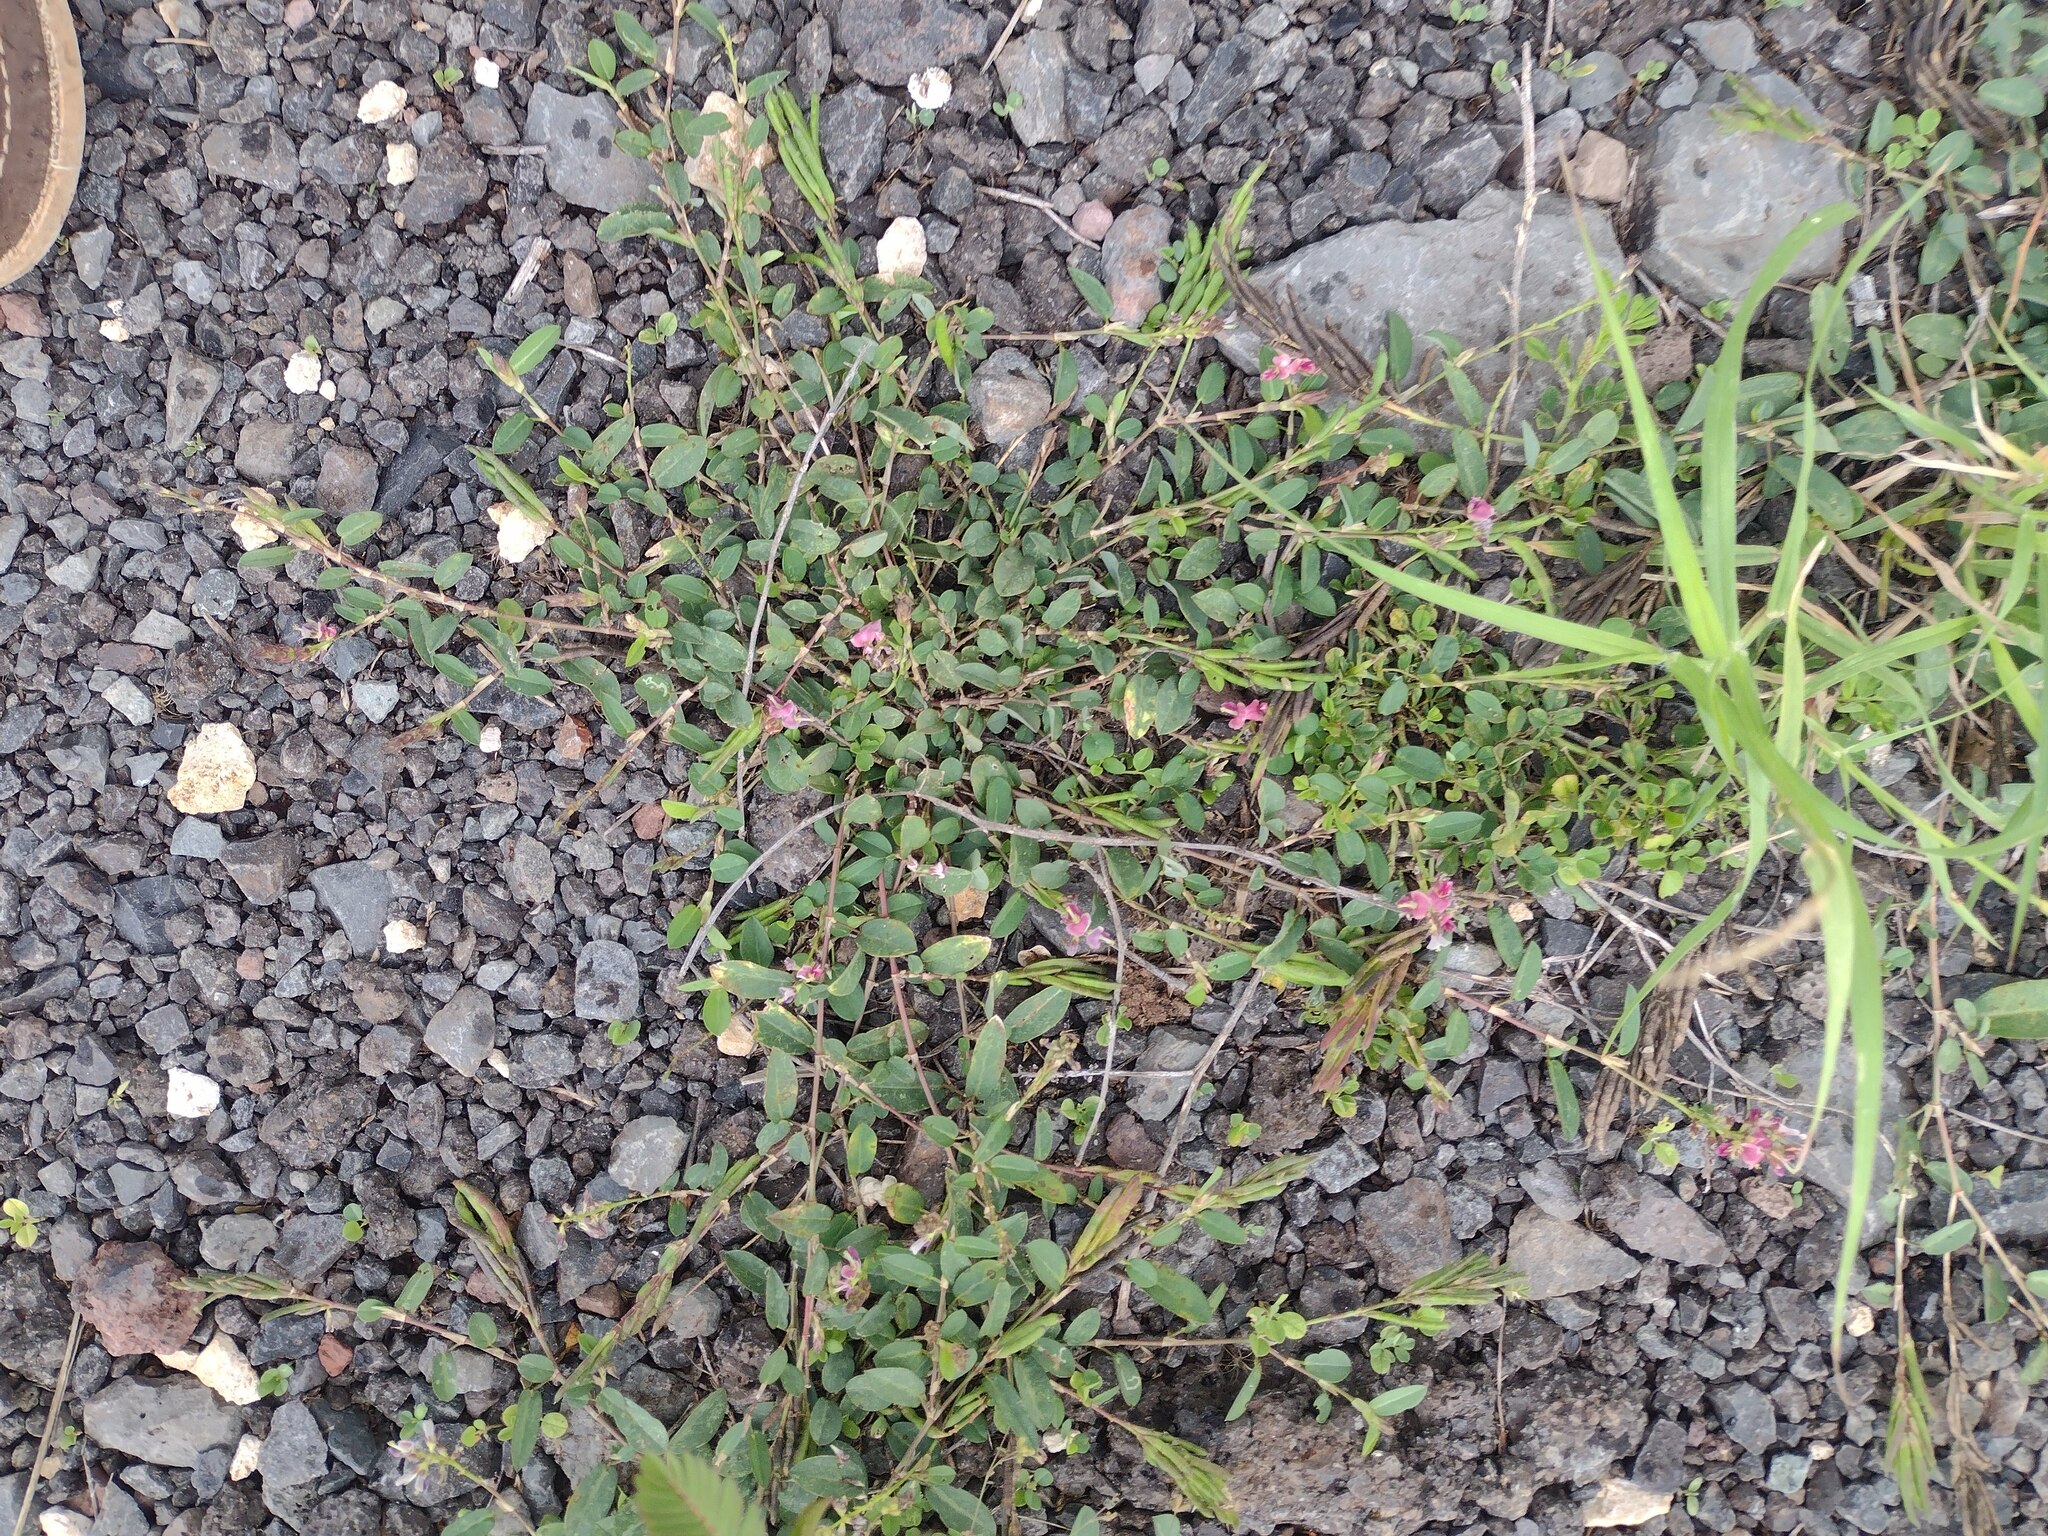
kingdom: Plantae
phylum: Tracheophyta
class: Magnoliopsida
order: Fabales
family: Fabaceae
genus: Alysicarpus
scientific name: Alysicarpus vaginalis
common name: White moneywort
